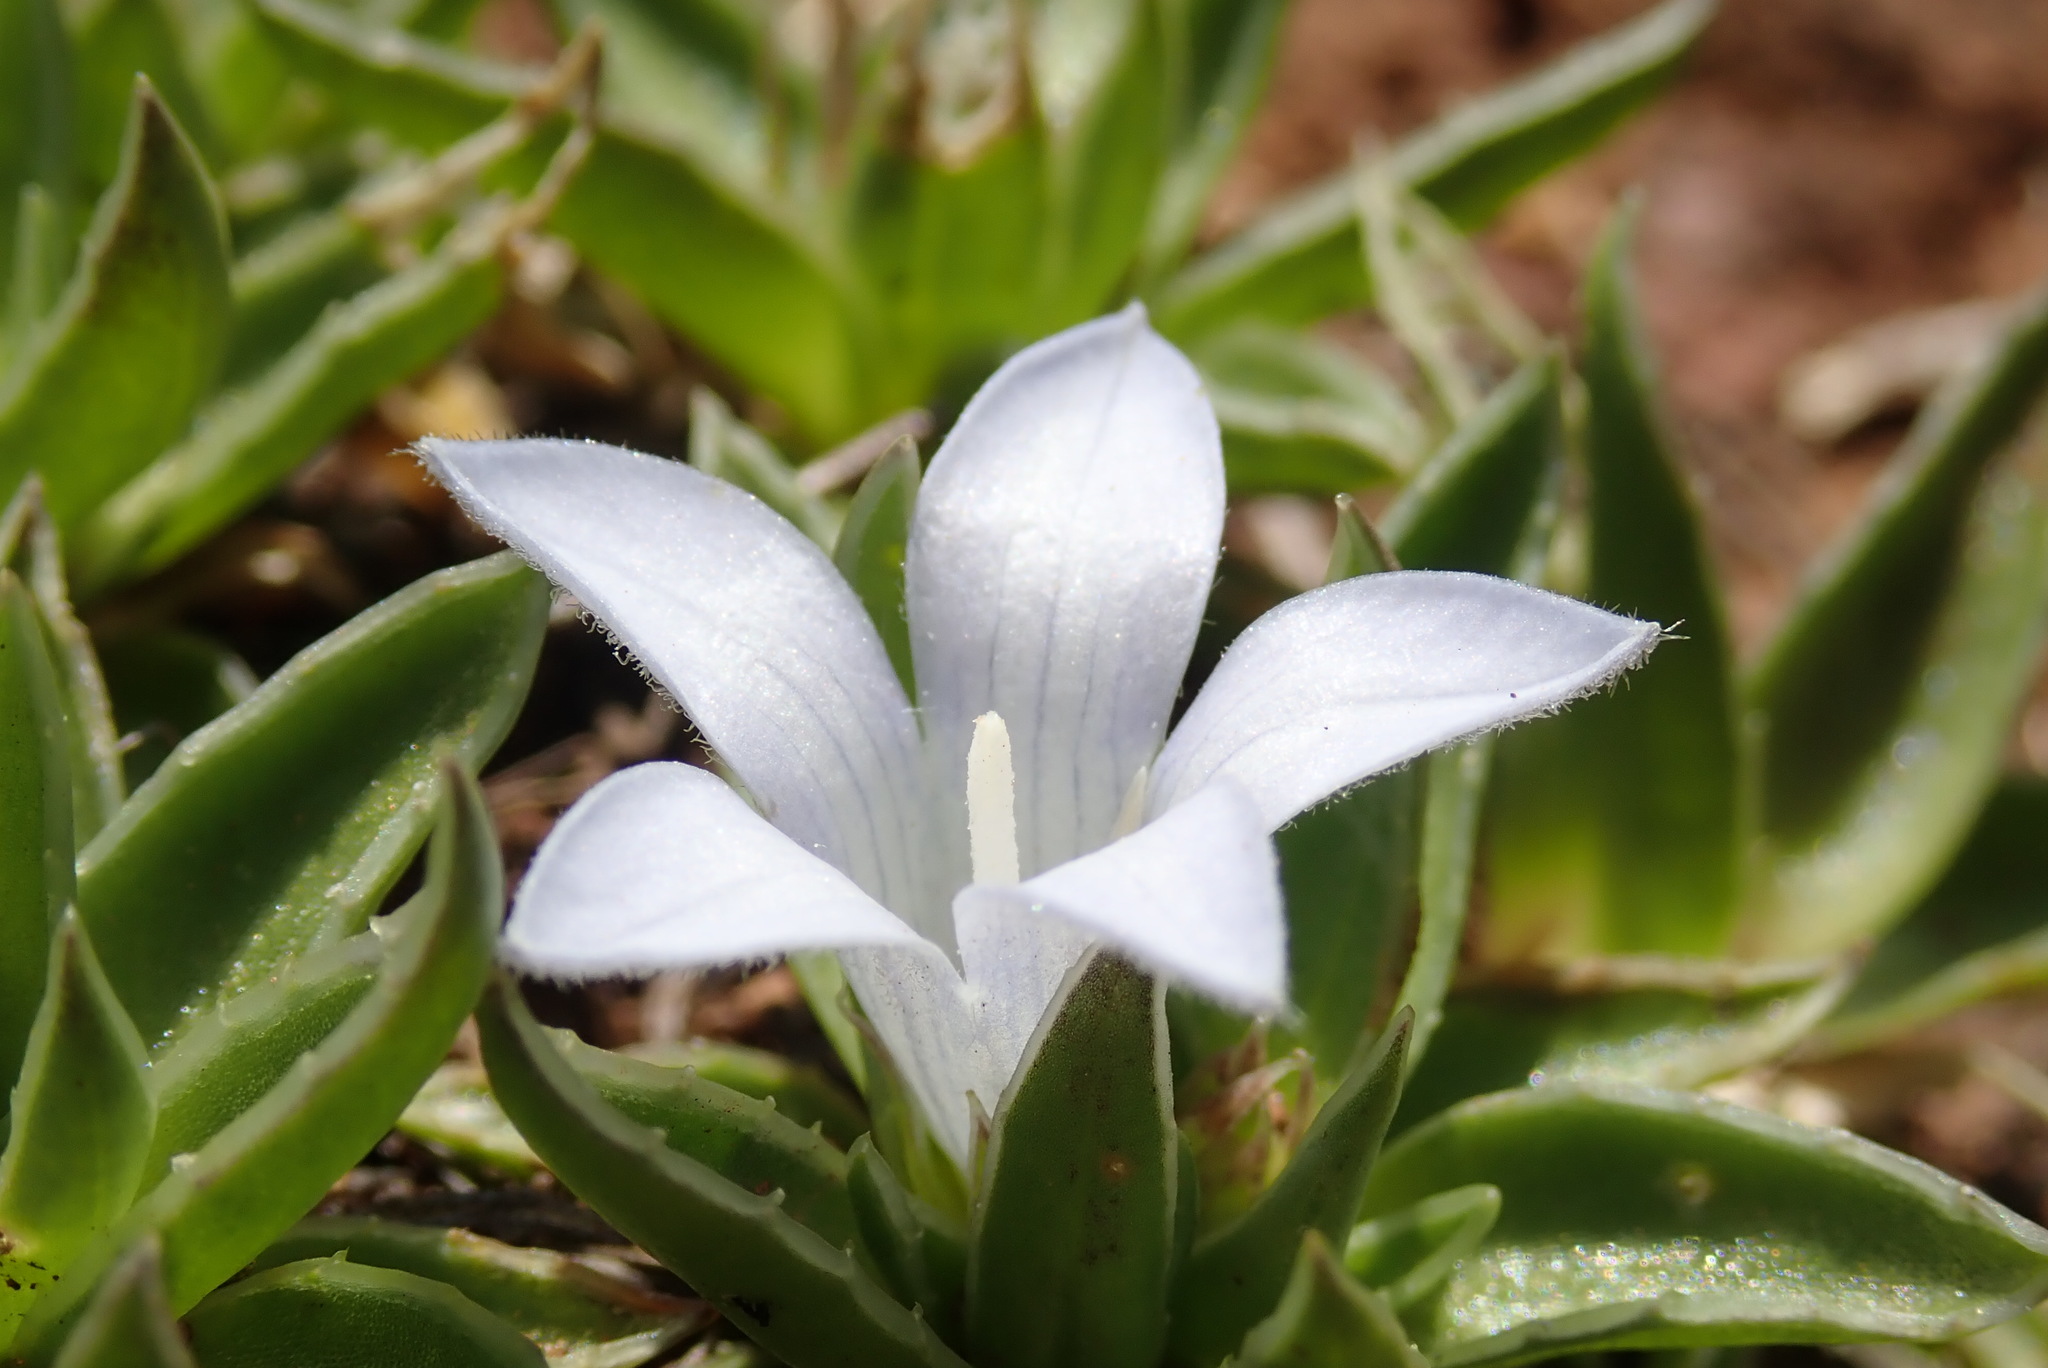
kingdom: Plantae
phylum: Tracheophyta
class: Magnoliopsida
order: Asterales
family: Campanulaceae
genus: Craterocapsa
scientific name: Craterocapsa tarsodes
